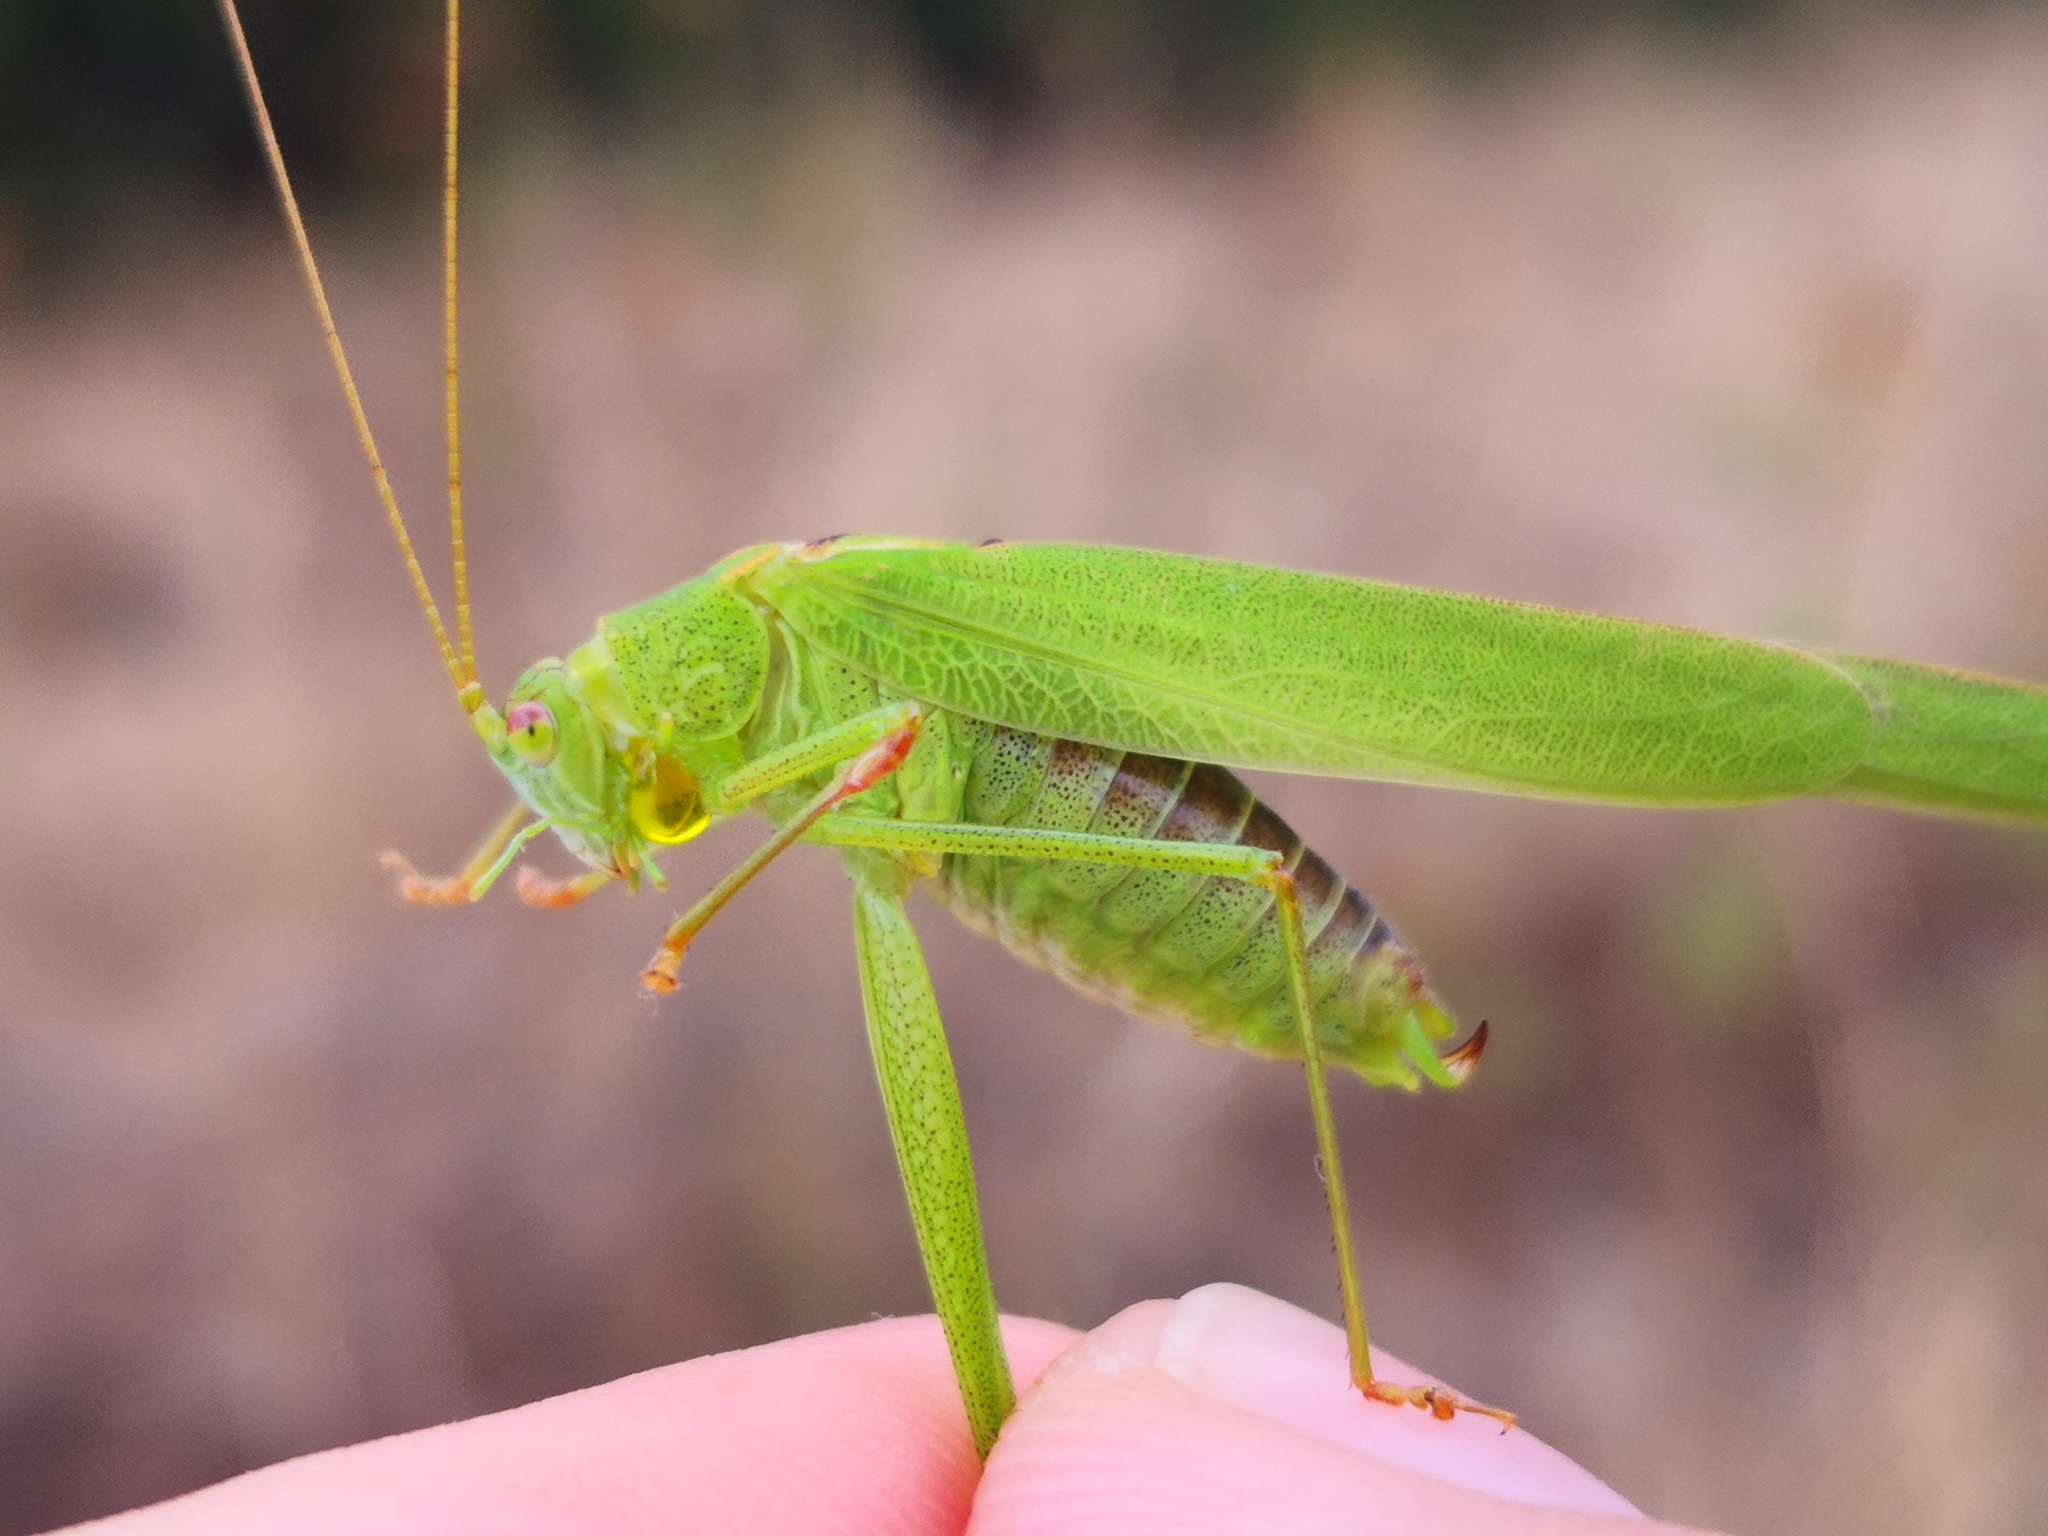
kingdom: Animalia
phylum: Arthropoda
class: Insecta
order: Orthoptera
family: Tettigoniidae
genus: Phaneroptera
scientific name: Phaneroptera falcata
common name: Sickle-bearing bush-cricket
